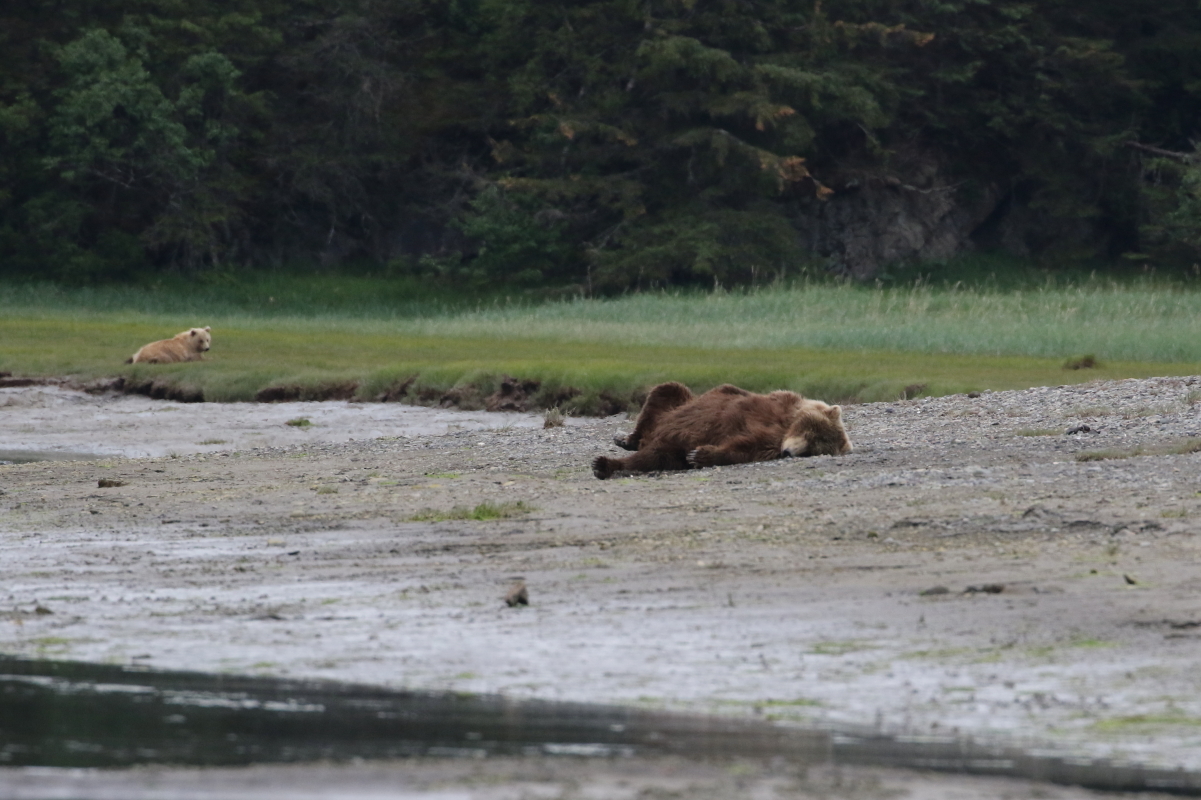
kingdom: Animalia
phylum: Chordata
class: Mammalia
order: Carnivora
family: Ursidae
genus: Ursus
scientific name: Ursus arctos
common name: Brown bear
